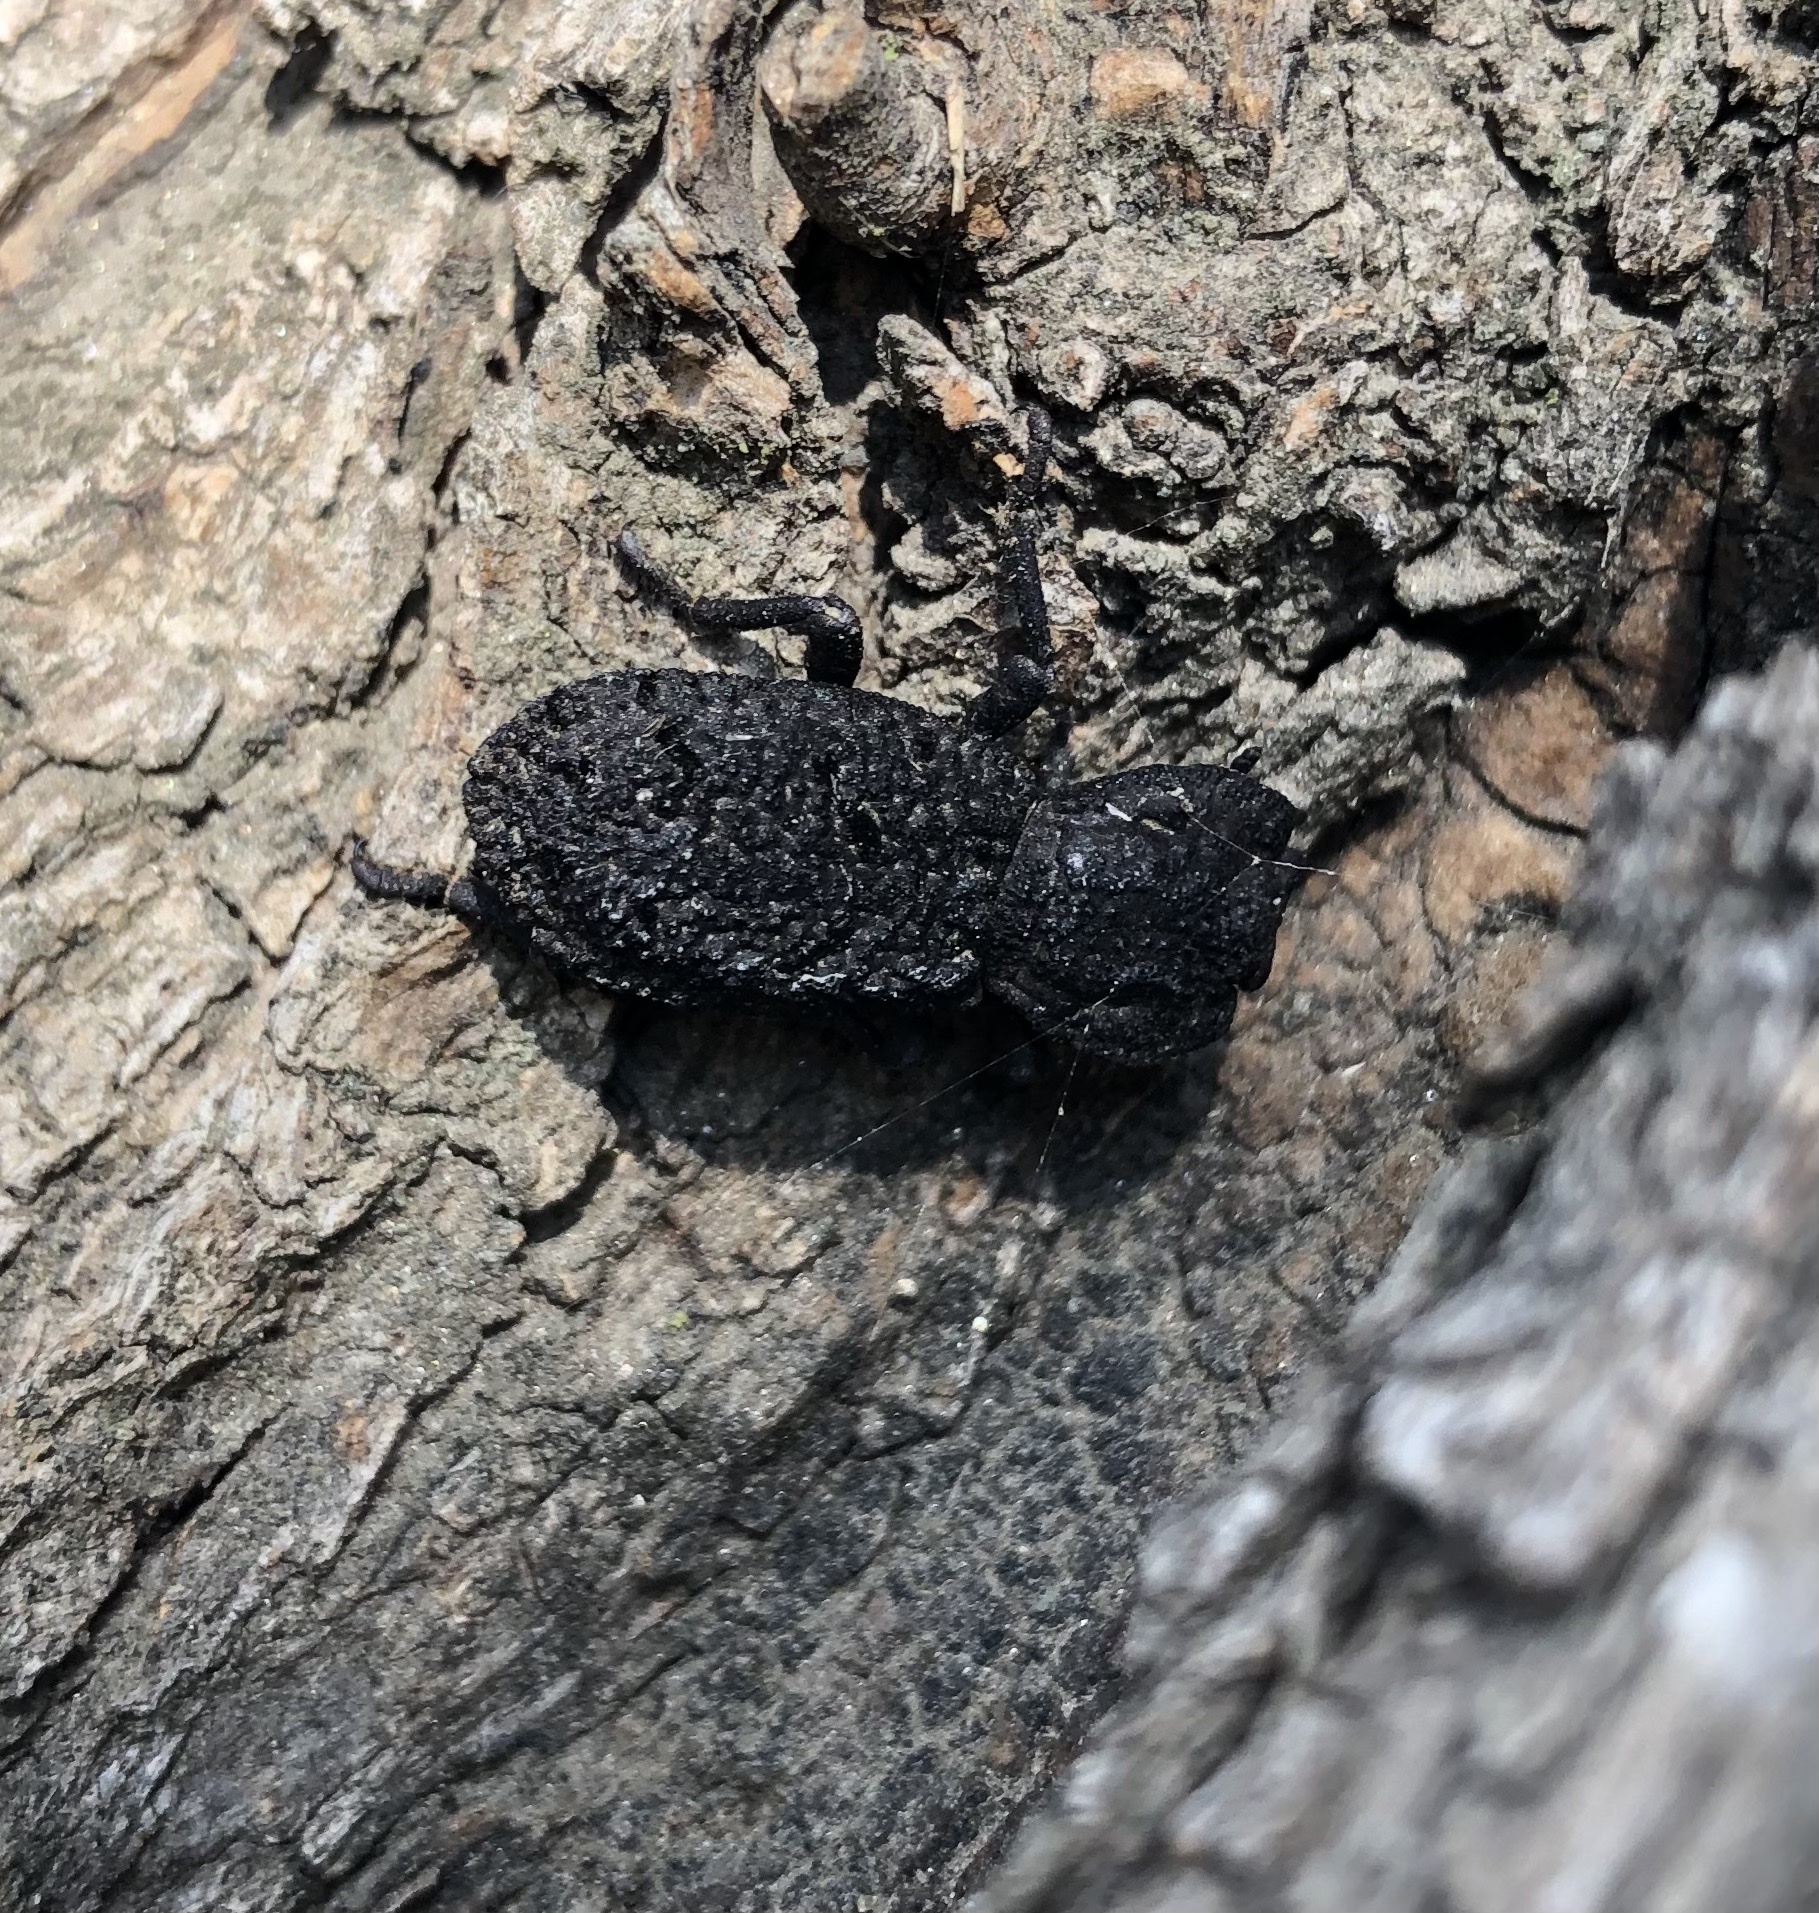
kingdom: Animalia
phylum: Arthropoda
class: Insecta
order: Coleoptera
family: Zopheridae
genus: Phloeodes
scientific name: Phloeodes diabolicus
